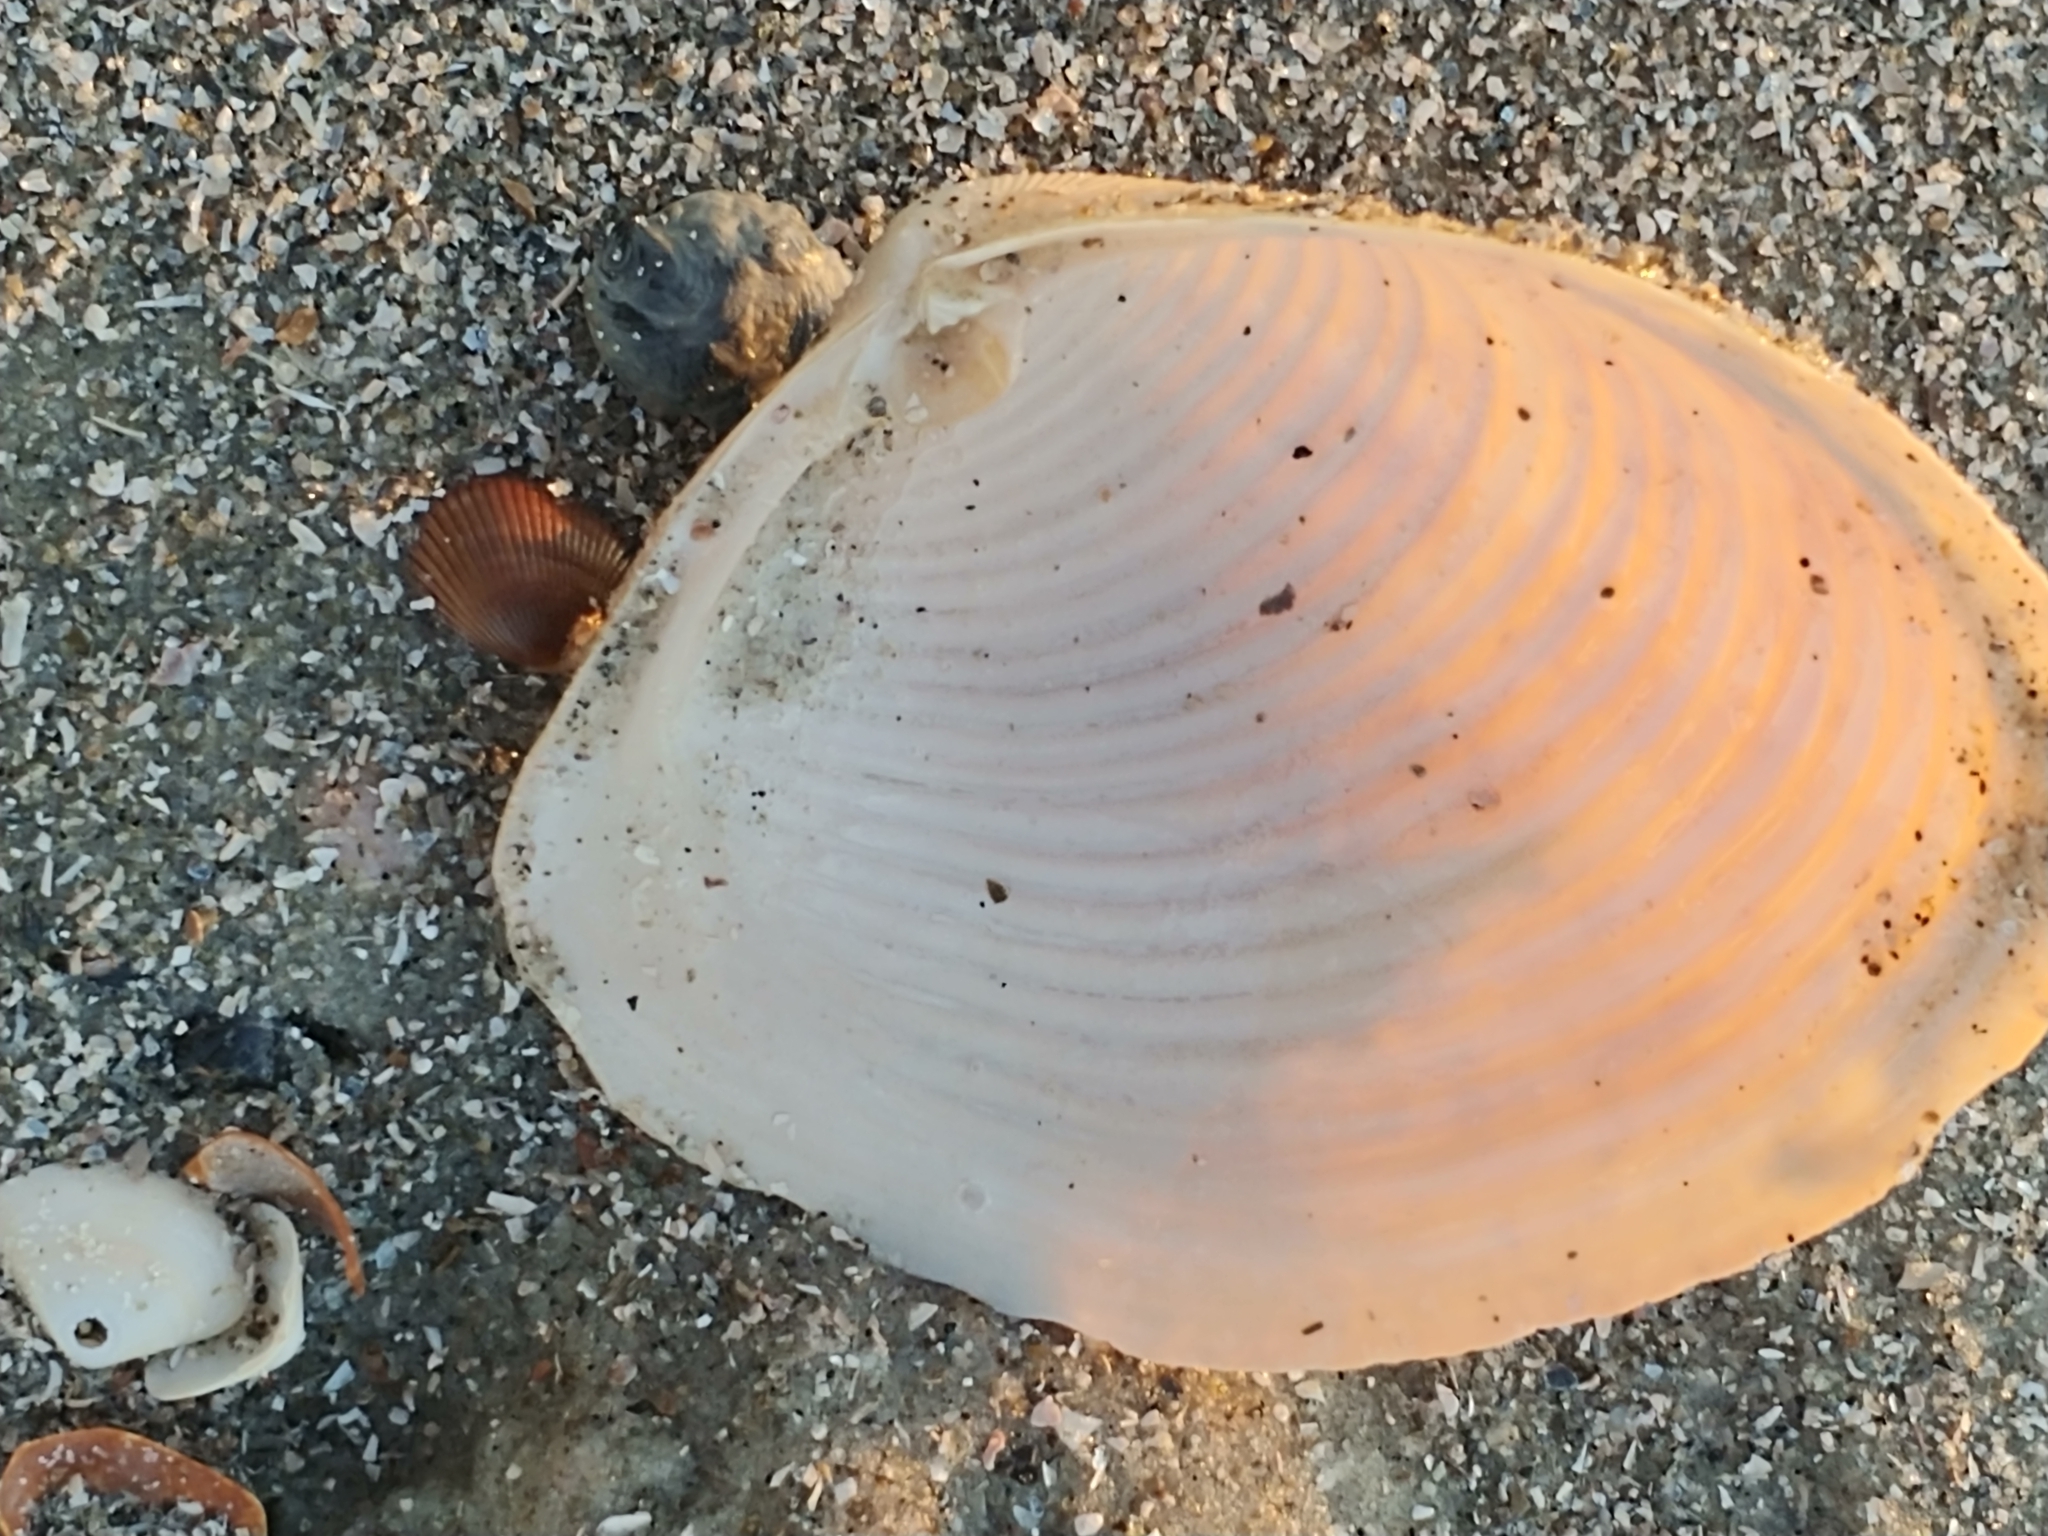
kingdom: Animalia
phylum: Mollusca
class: Bivalvia
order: Venerida
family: Anatinellidae
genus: Raeta
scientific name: Raeta plicatella
